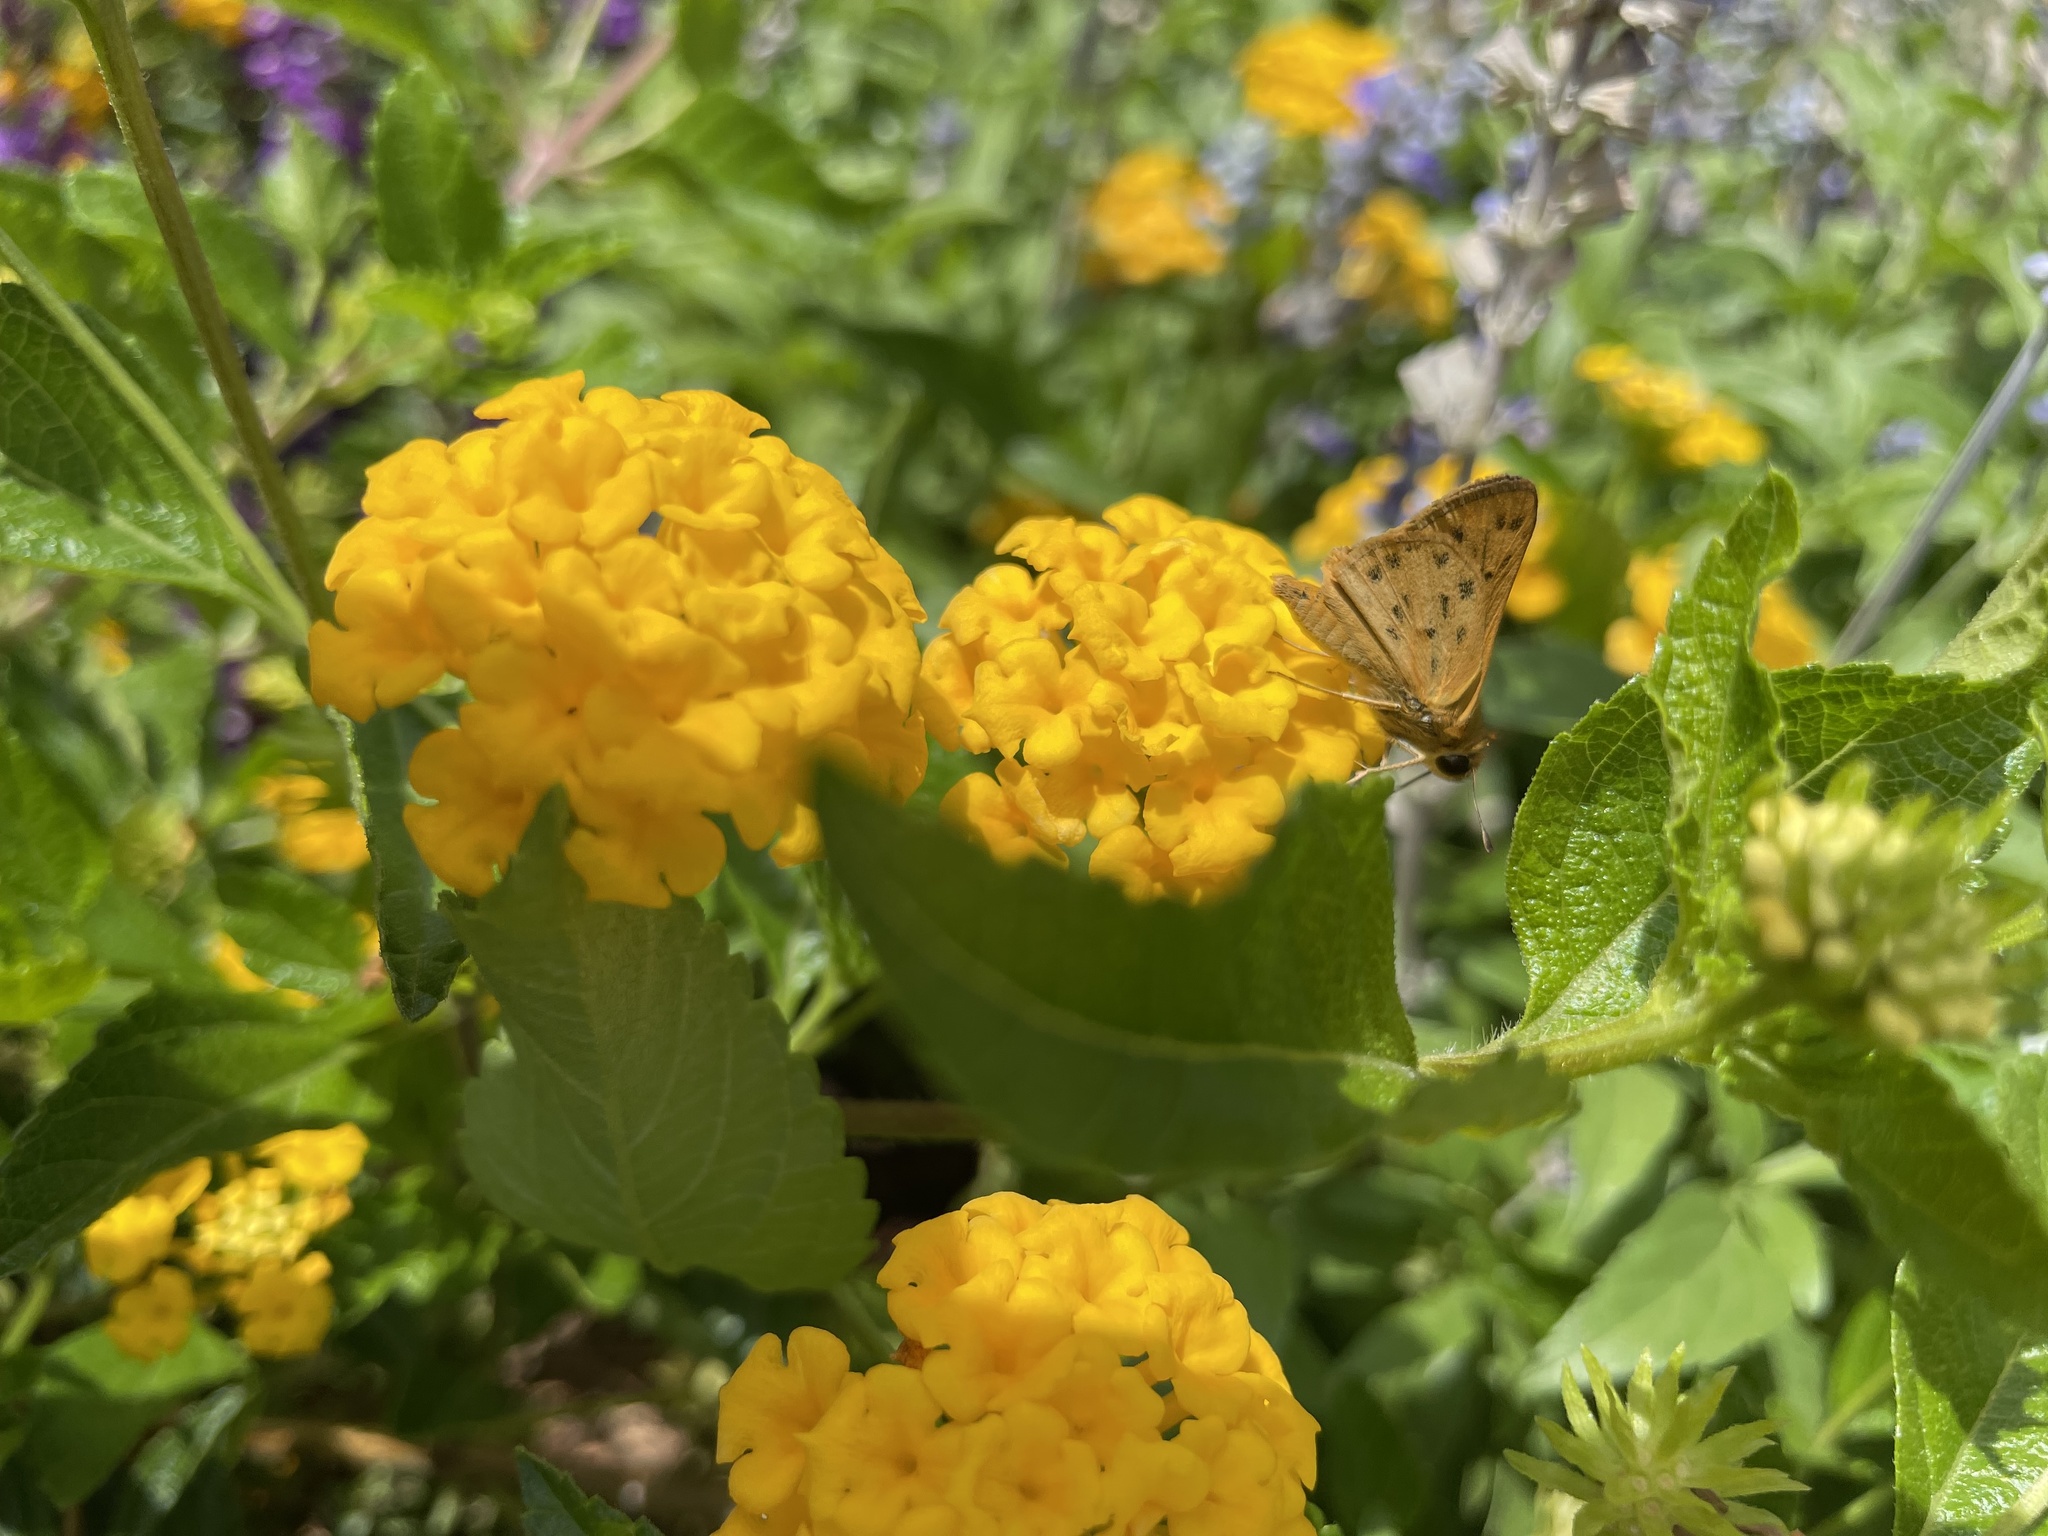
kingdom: Animalia
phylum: Arthropoda
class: Insecta
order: Lepidoptera
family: Hesperiidae
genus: Hylephila
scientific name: Hylephila phyleus
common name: Fiery skipper
